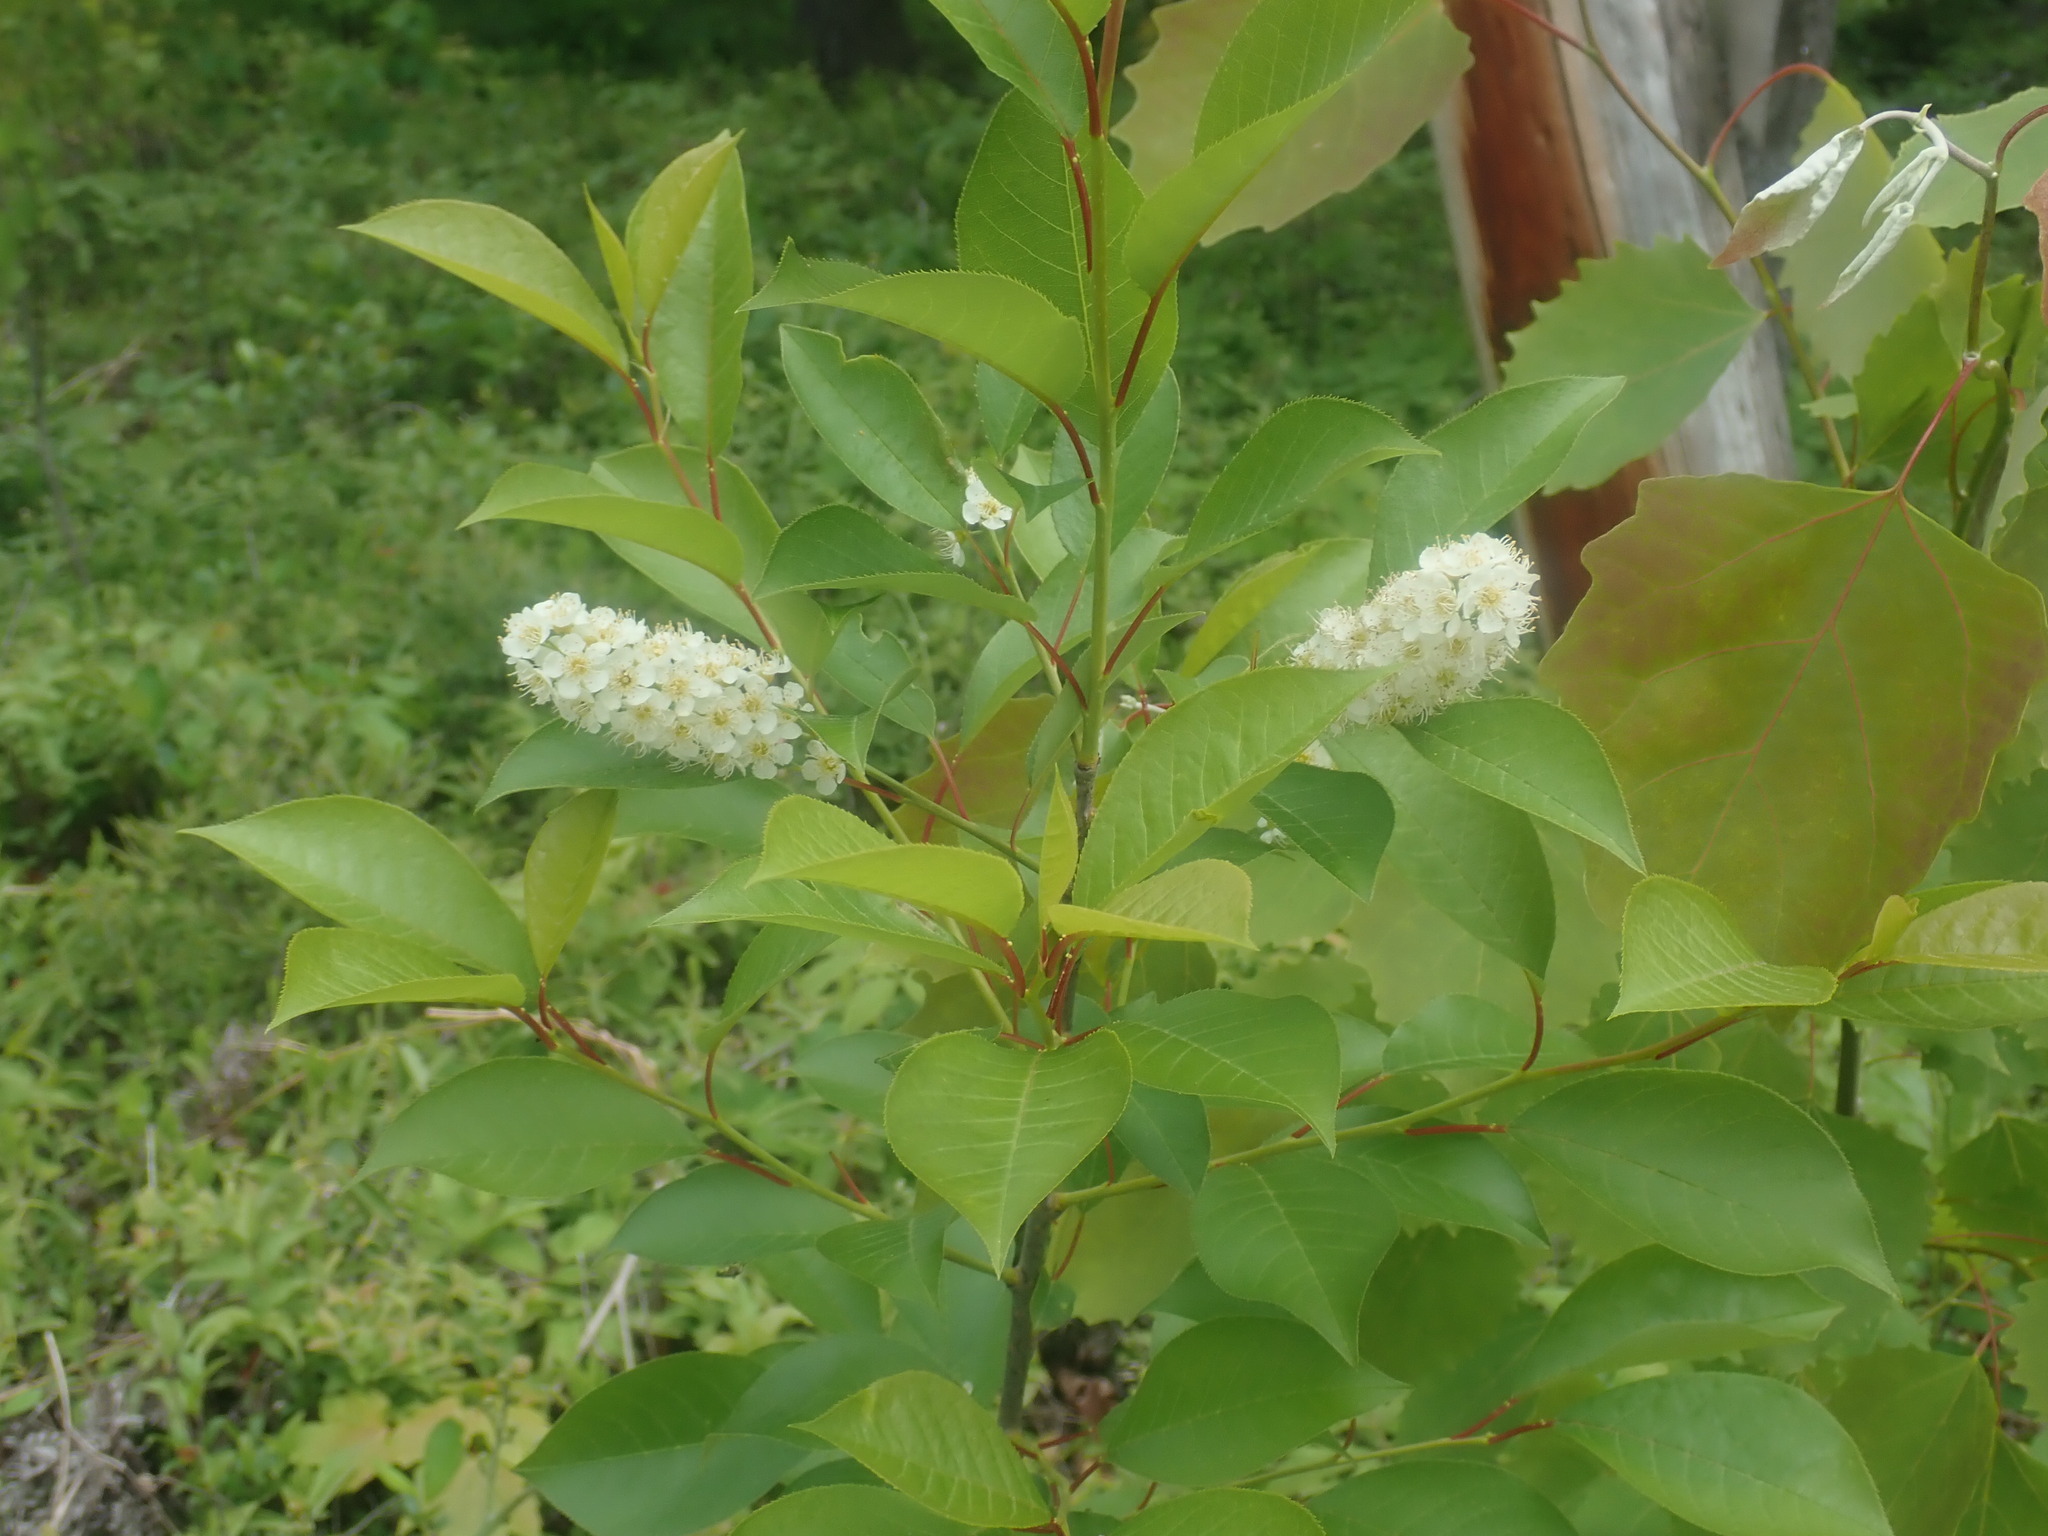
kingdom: Plantae
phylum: Tracheophyta
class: Magnoliopsida
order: Rosales
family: Rosaceae
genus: Prunus
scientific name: Prunus virginiana
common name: Chokecherry
